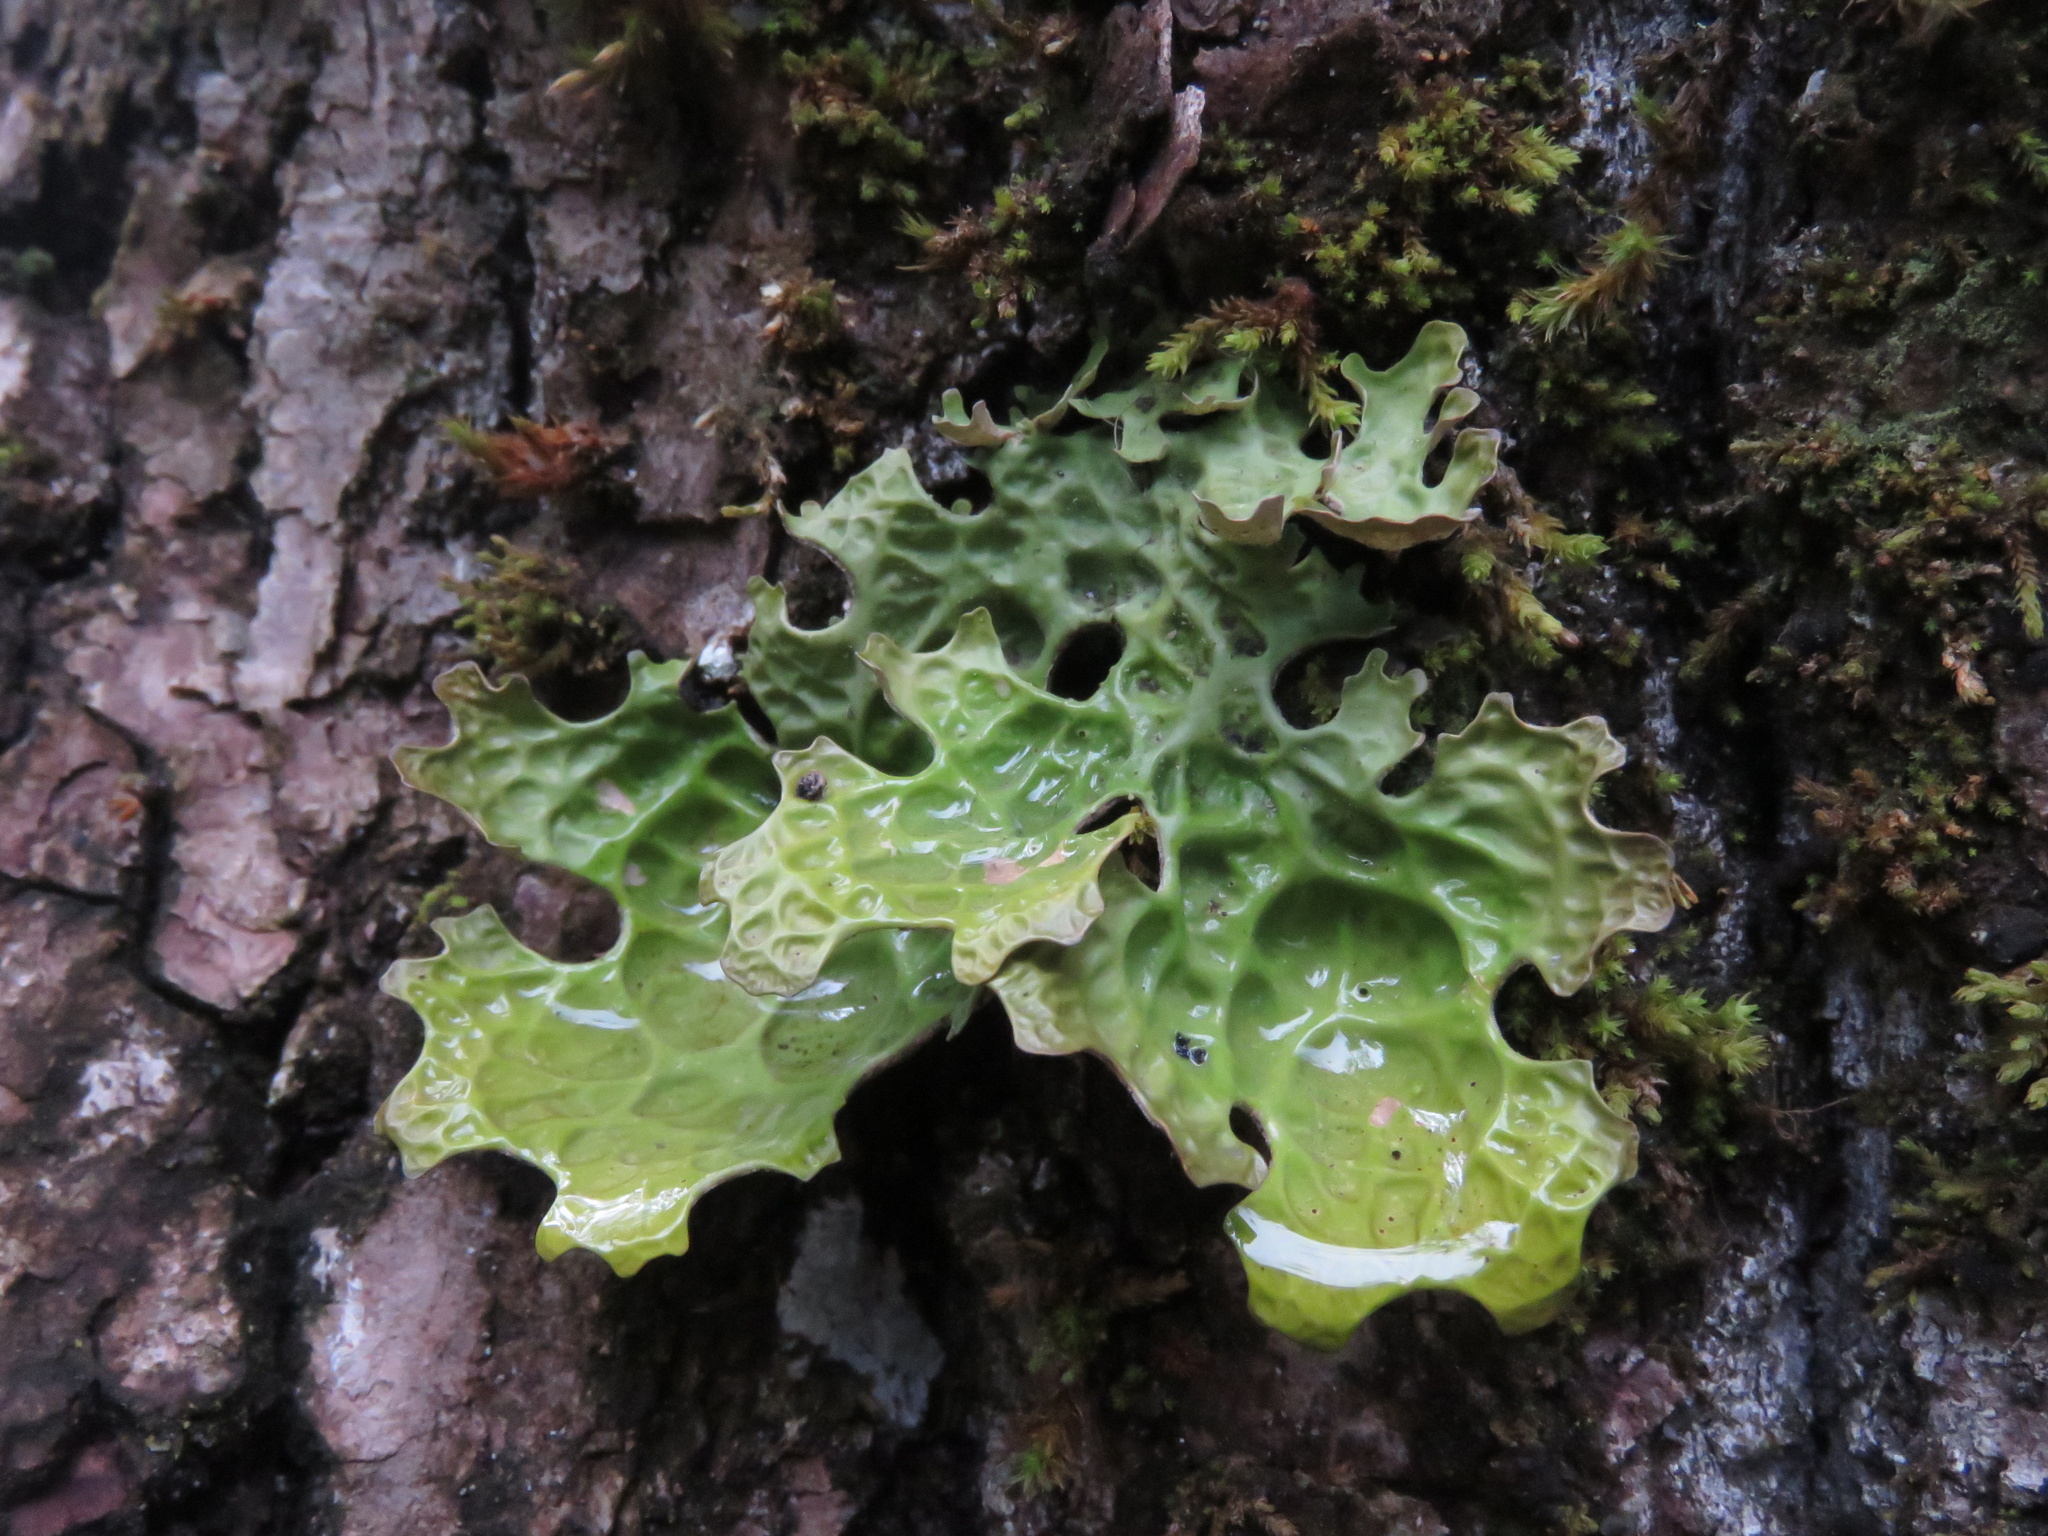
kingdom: Fungi
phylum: Ascomycota
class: Lecanoromycetes
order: Peltigerales
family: Lobariaceae
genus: Lobaria
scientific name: Lobaria pulmonaria
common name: Lungwort
